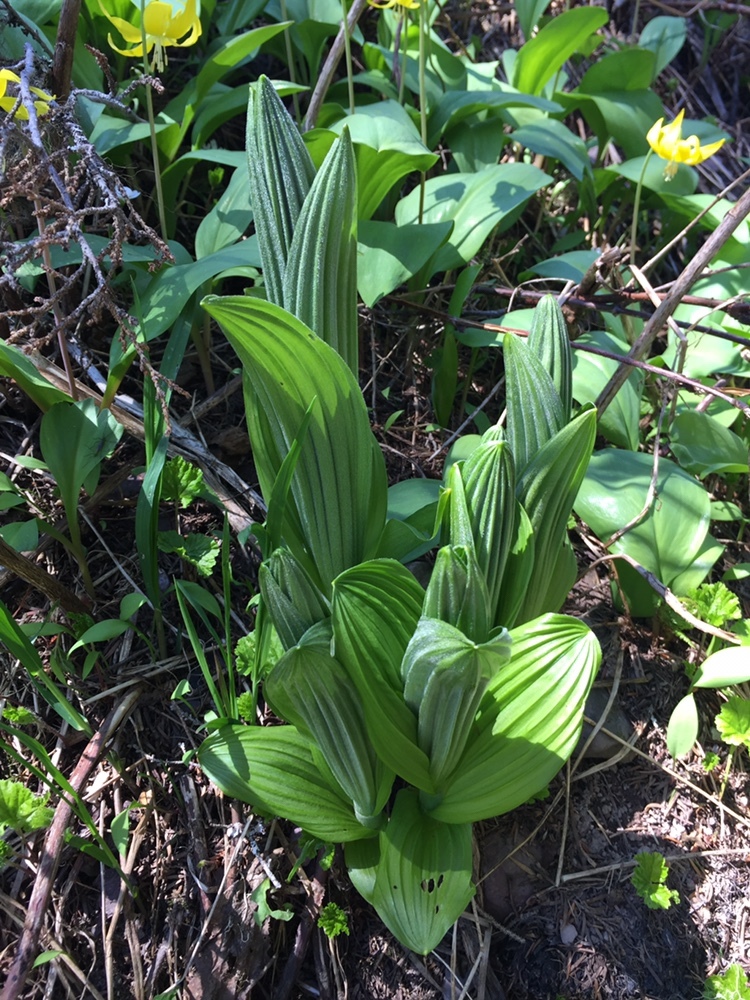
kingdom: Plantae
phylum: Tracheophyta
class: Liliopsida
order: Liliales
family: Melanthiaceae
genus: Veratrum
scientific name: Veratrum viride
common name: American false hellebore
